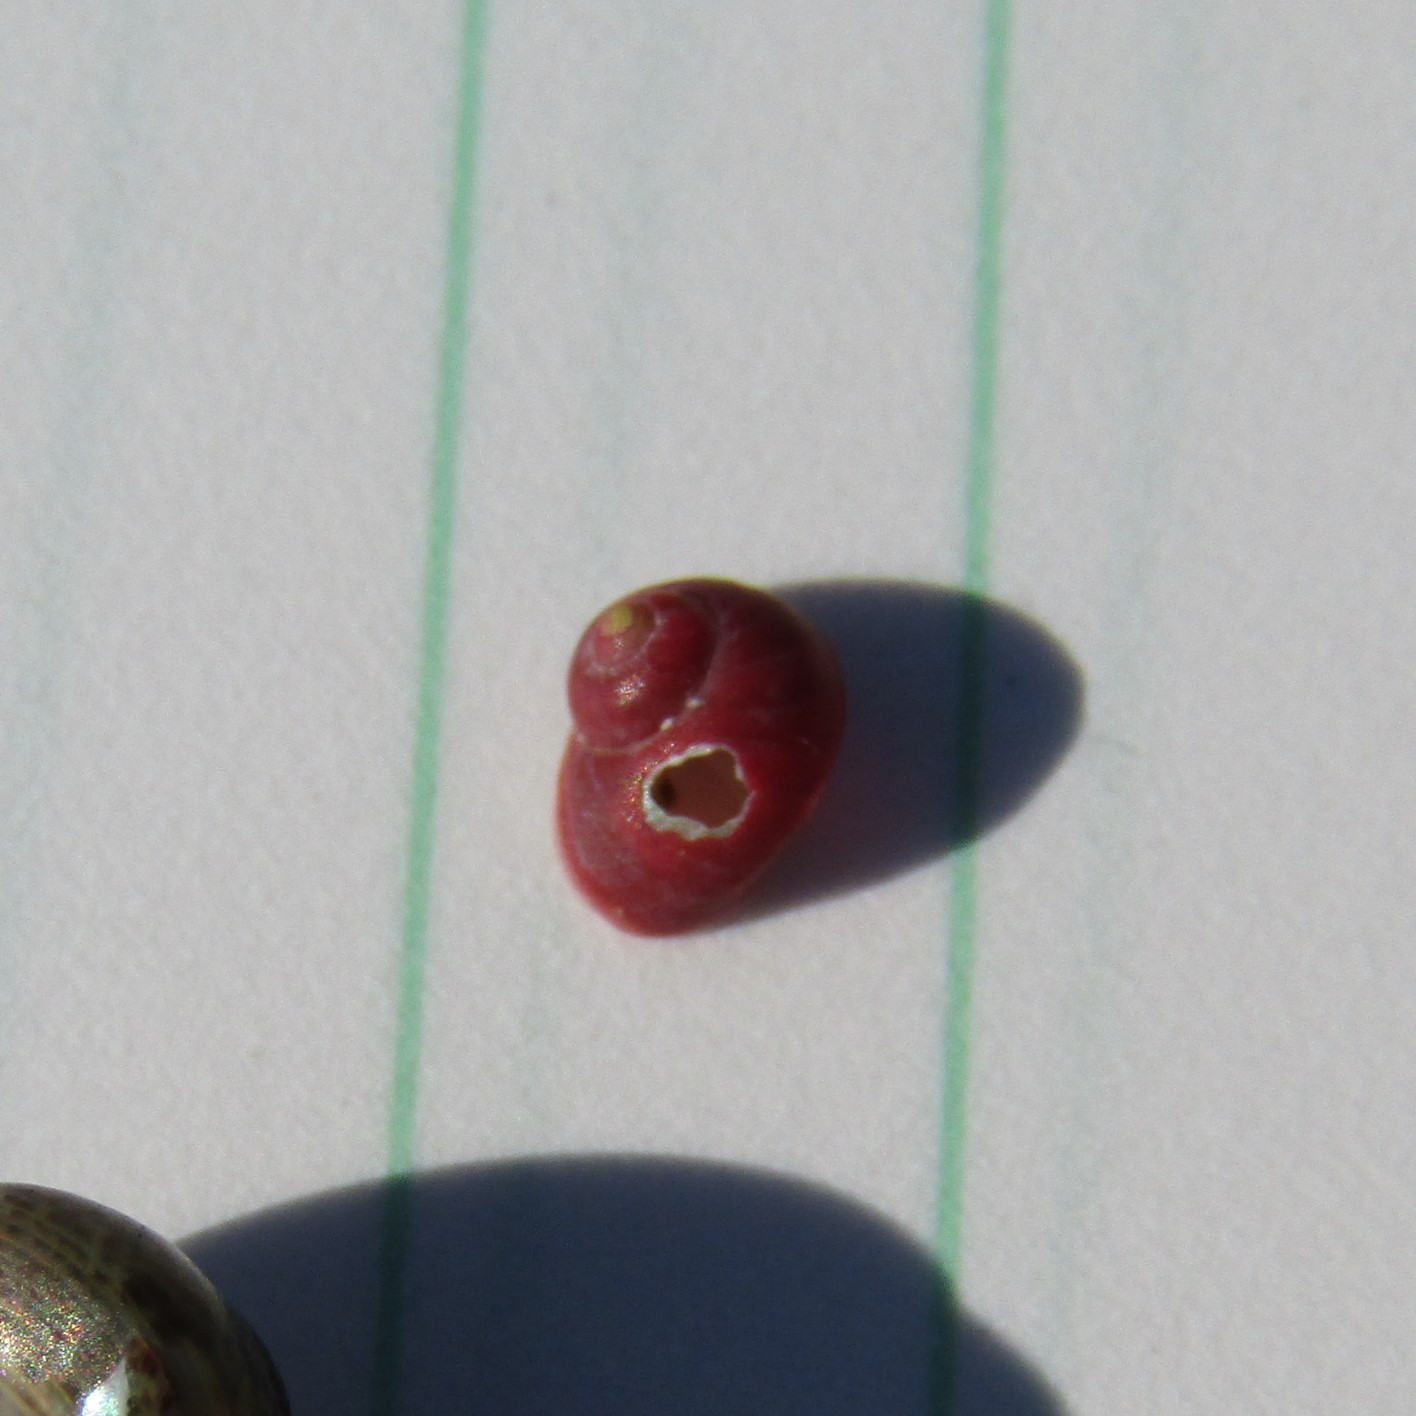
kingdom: Animalia
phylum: Mollusca
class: Gastropoda
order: Trochida
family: Trochidae
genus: Cantharidus
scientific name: Cantharidus dilatatus
